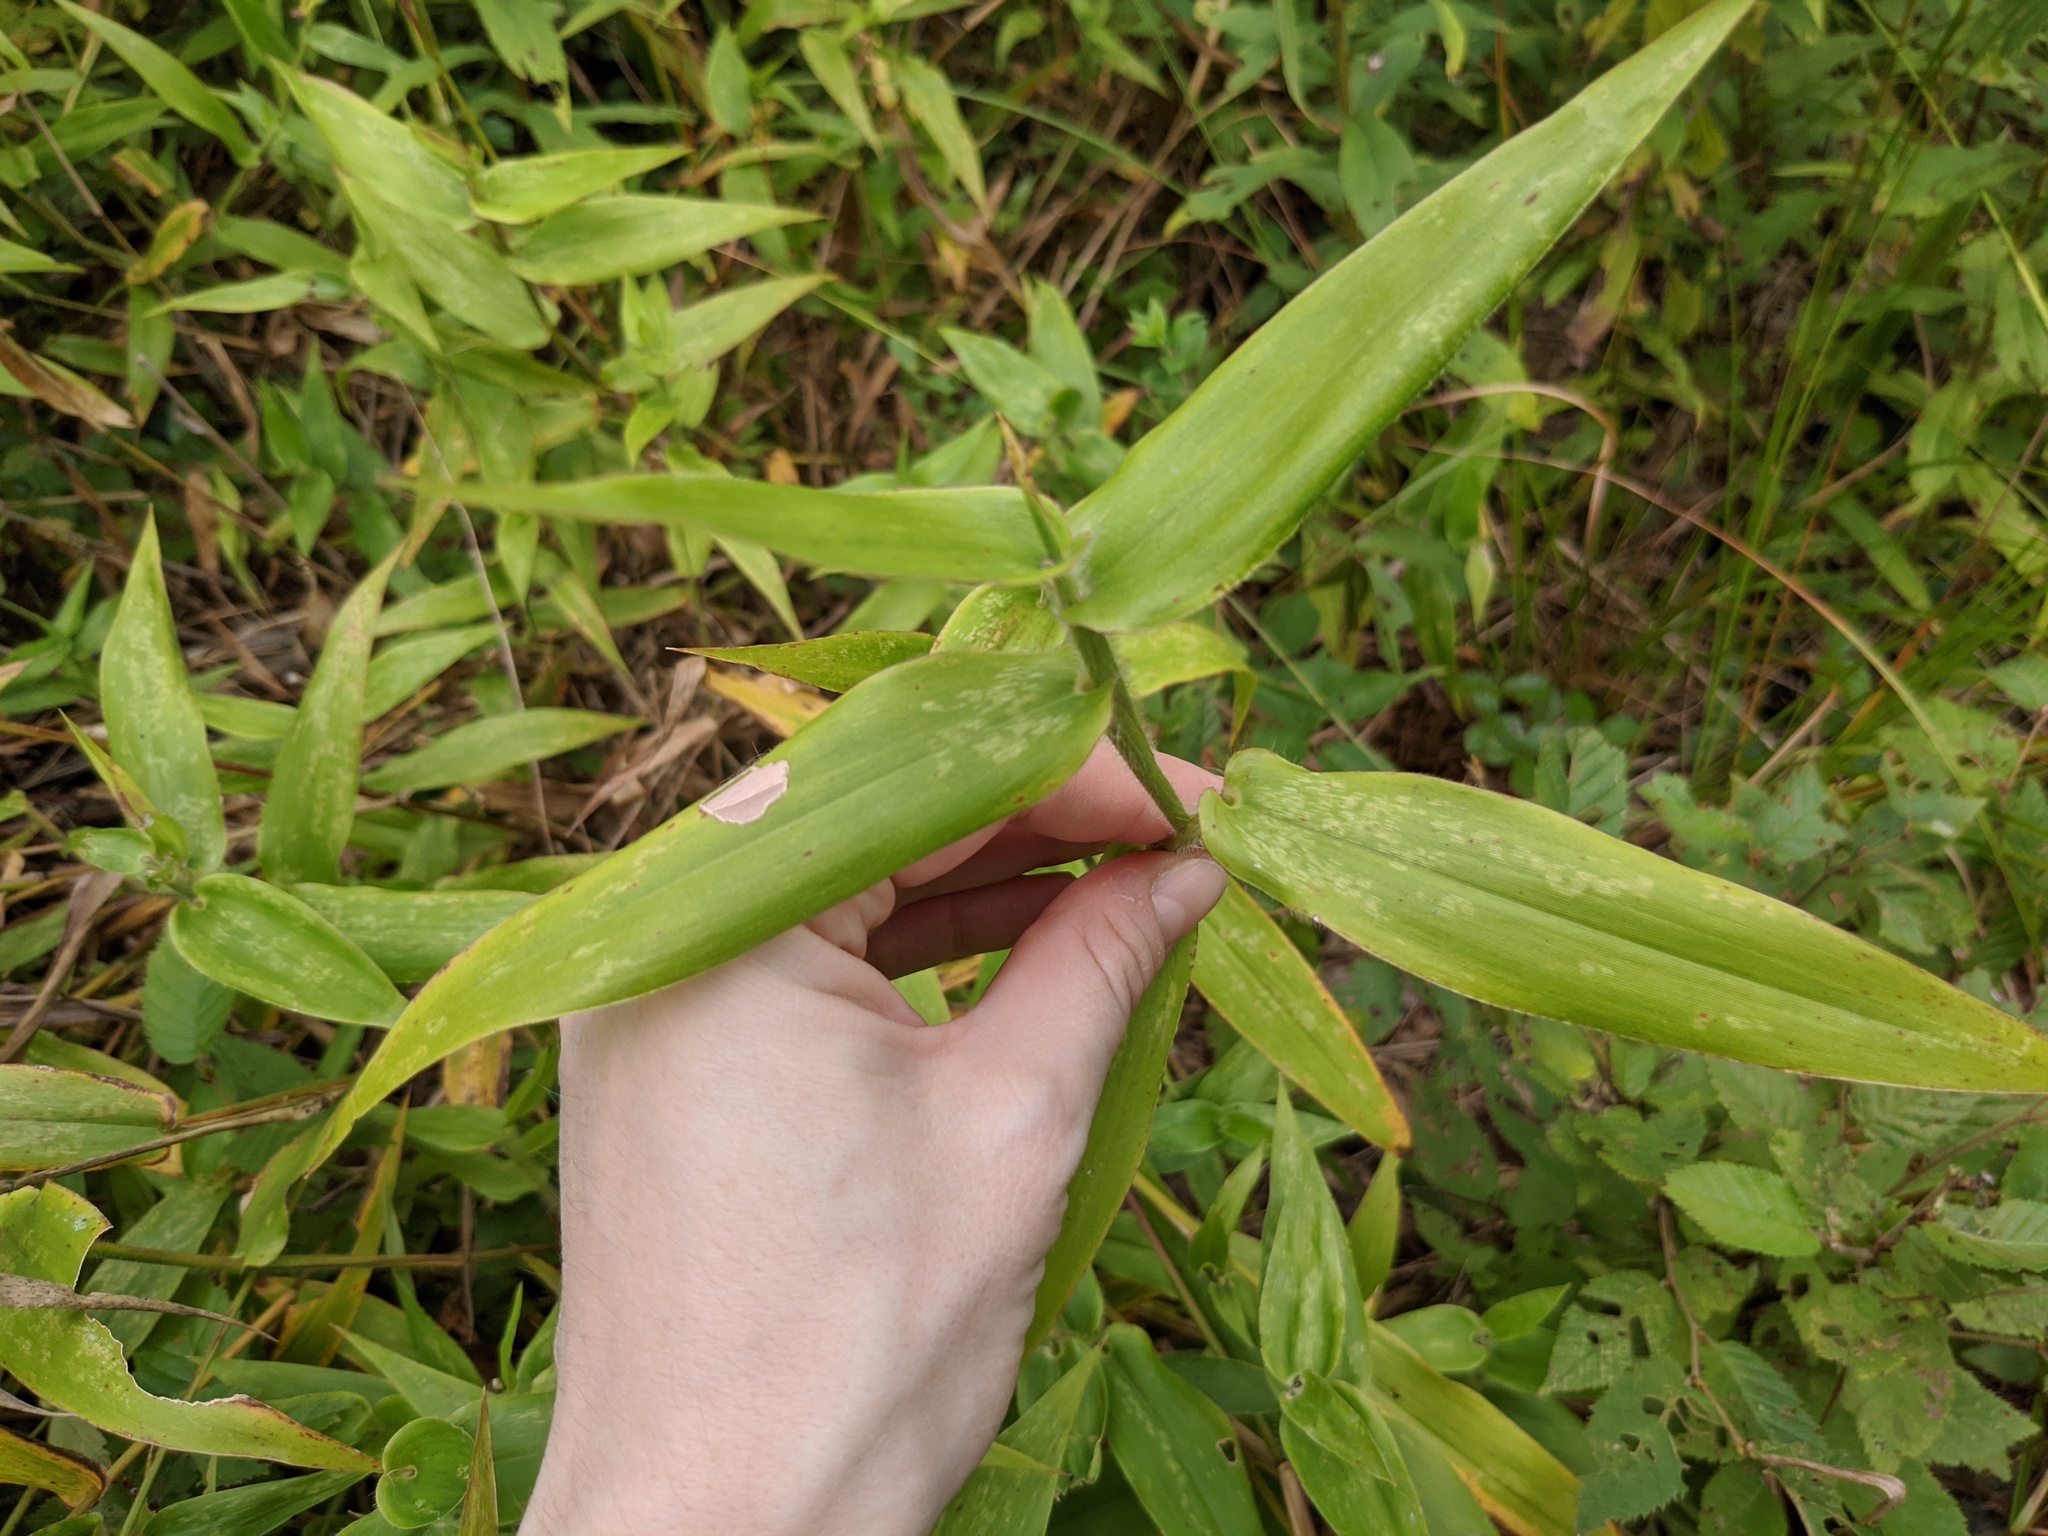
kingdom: Plantae
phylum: Tracheophyta
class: Liliopsida
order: Poales
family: Poaceae
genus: Dichanthelium
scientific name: Dichanthelium clandestinum
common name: Deer-tongue grass
